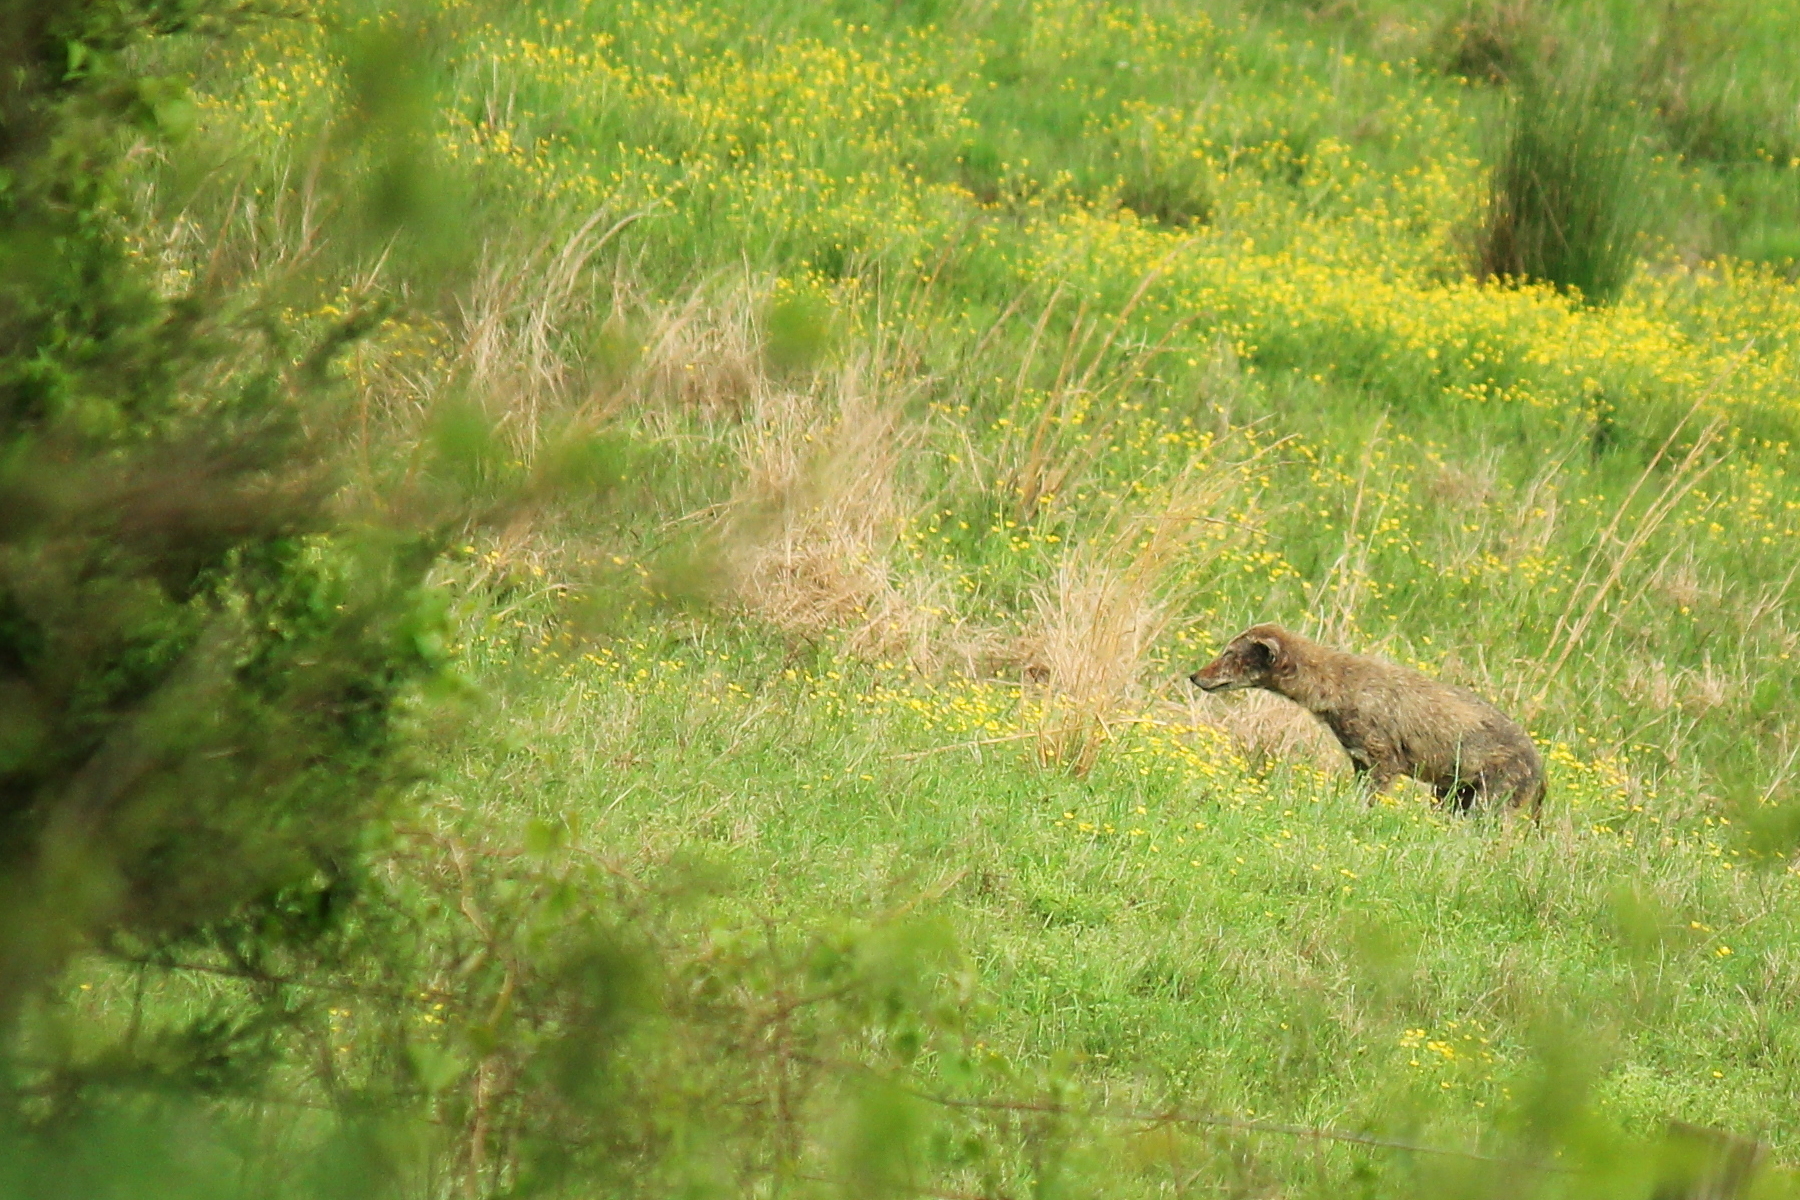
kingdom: Animalia
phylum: Chordata
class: Mammalia
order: Carnivora
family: Canidae
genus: Canis
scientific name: Canis latrans
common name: Coyote
